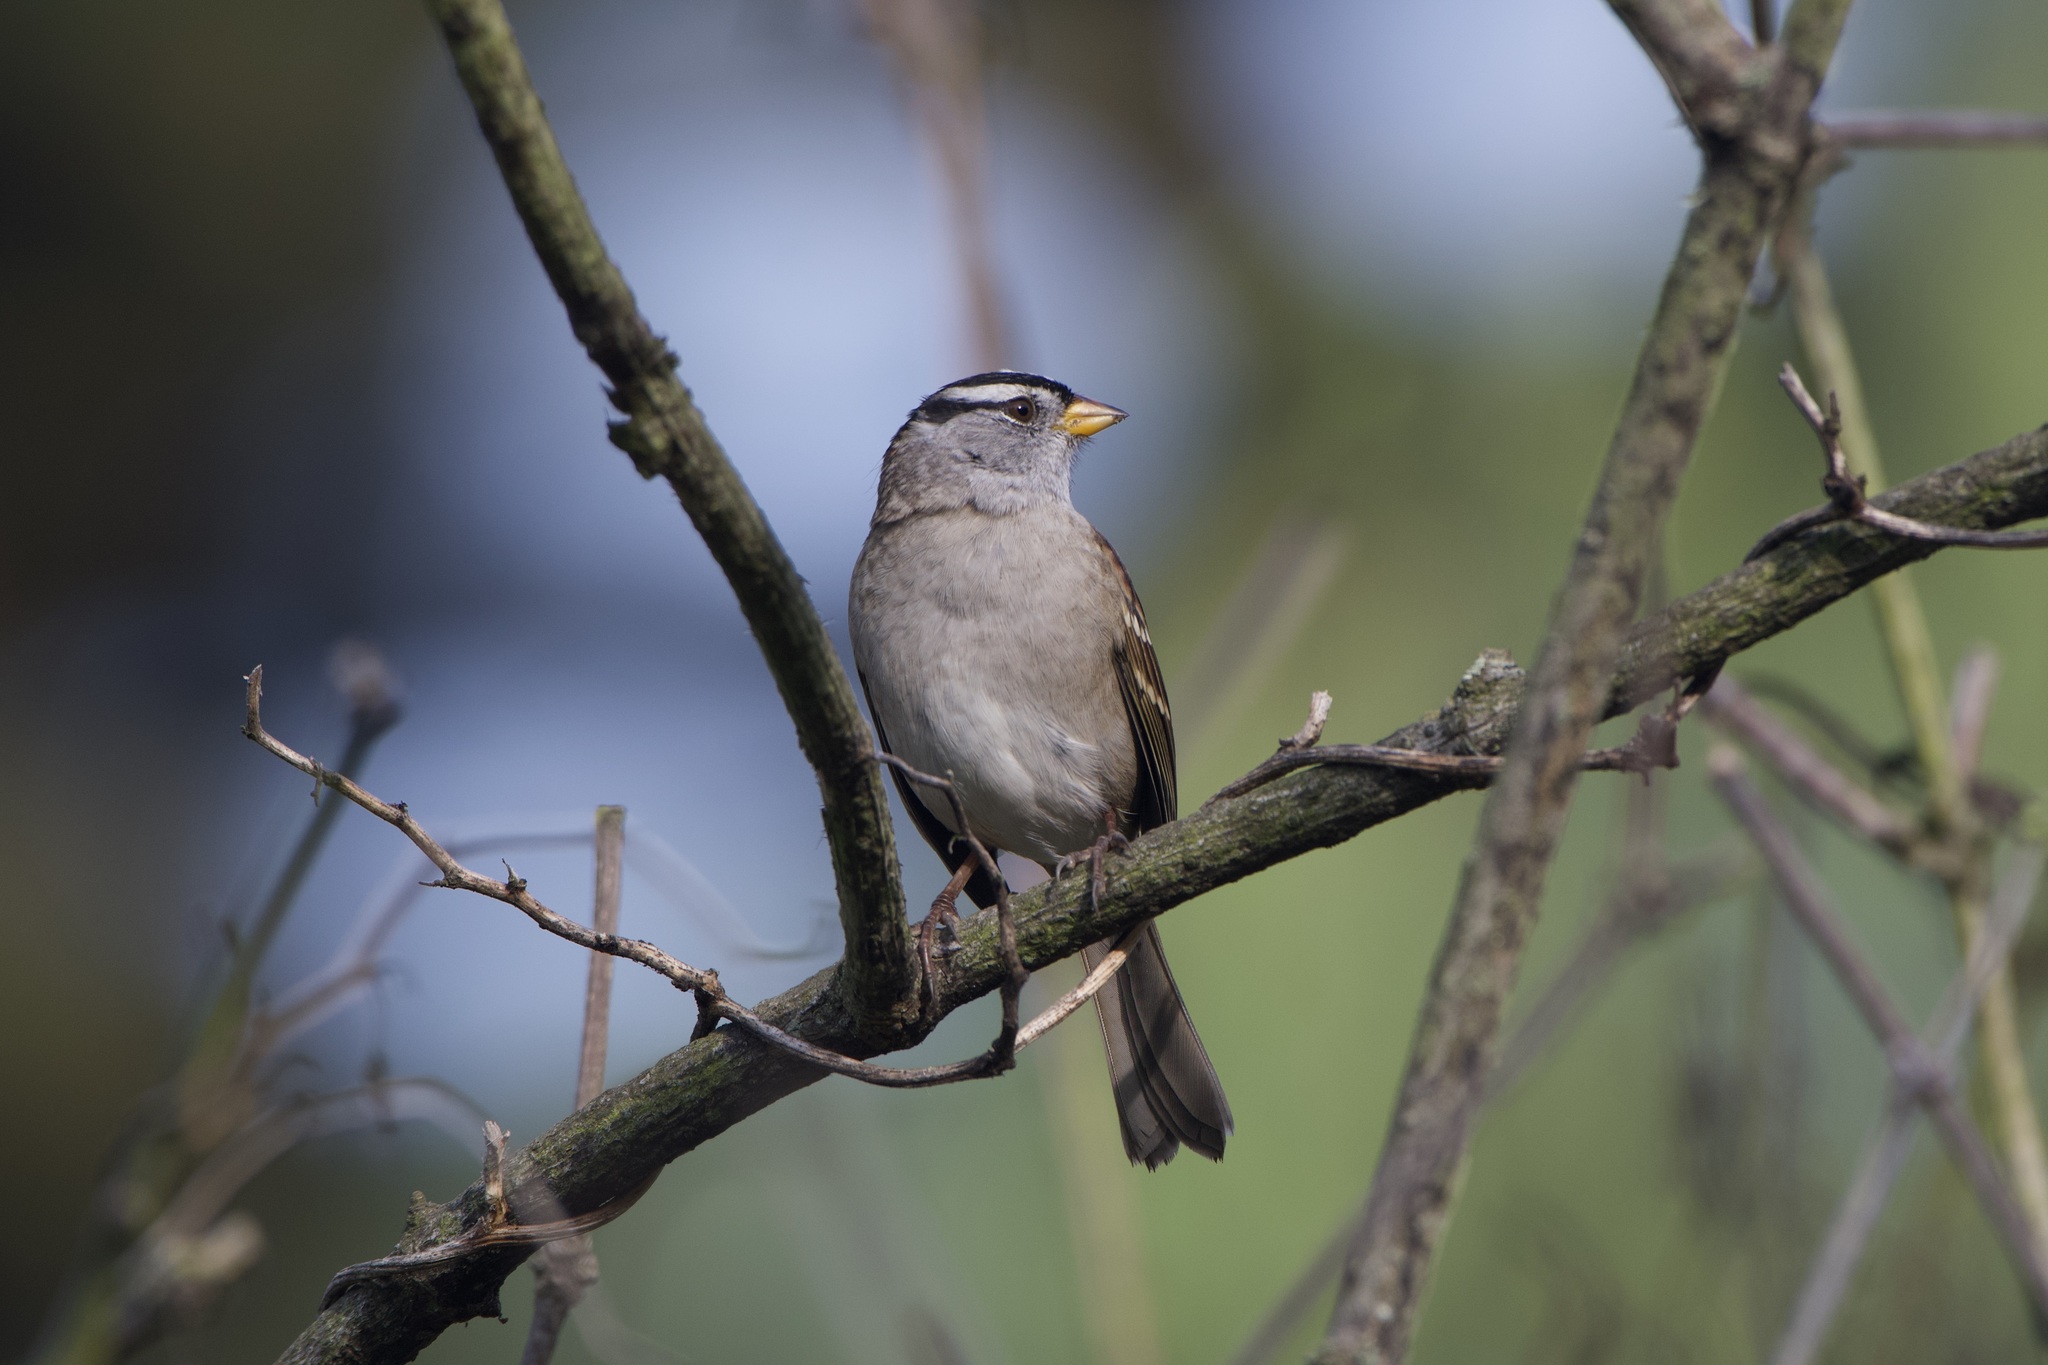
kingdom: Animalia
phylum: Chordata
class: Aves
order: Passeriformes
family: Passerellidae
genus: Zonotrichia
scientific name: Zonotrichia leucophrys
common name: White-crowned sparrow
